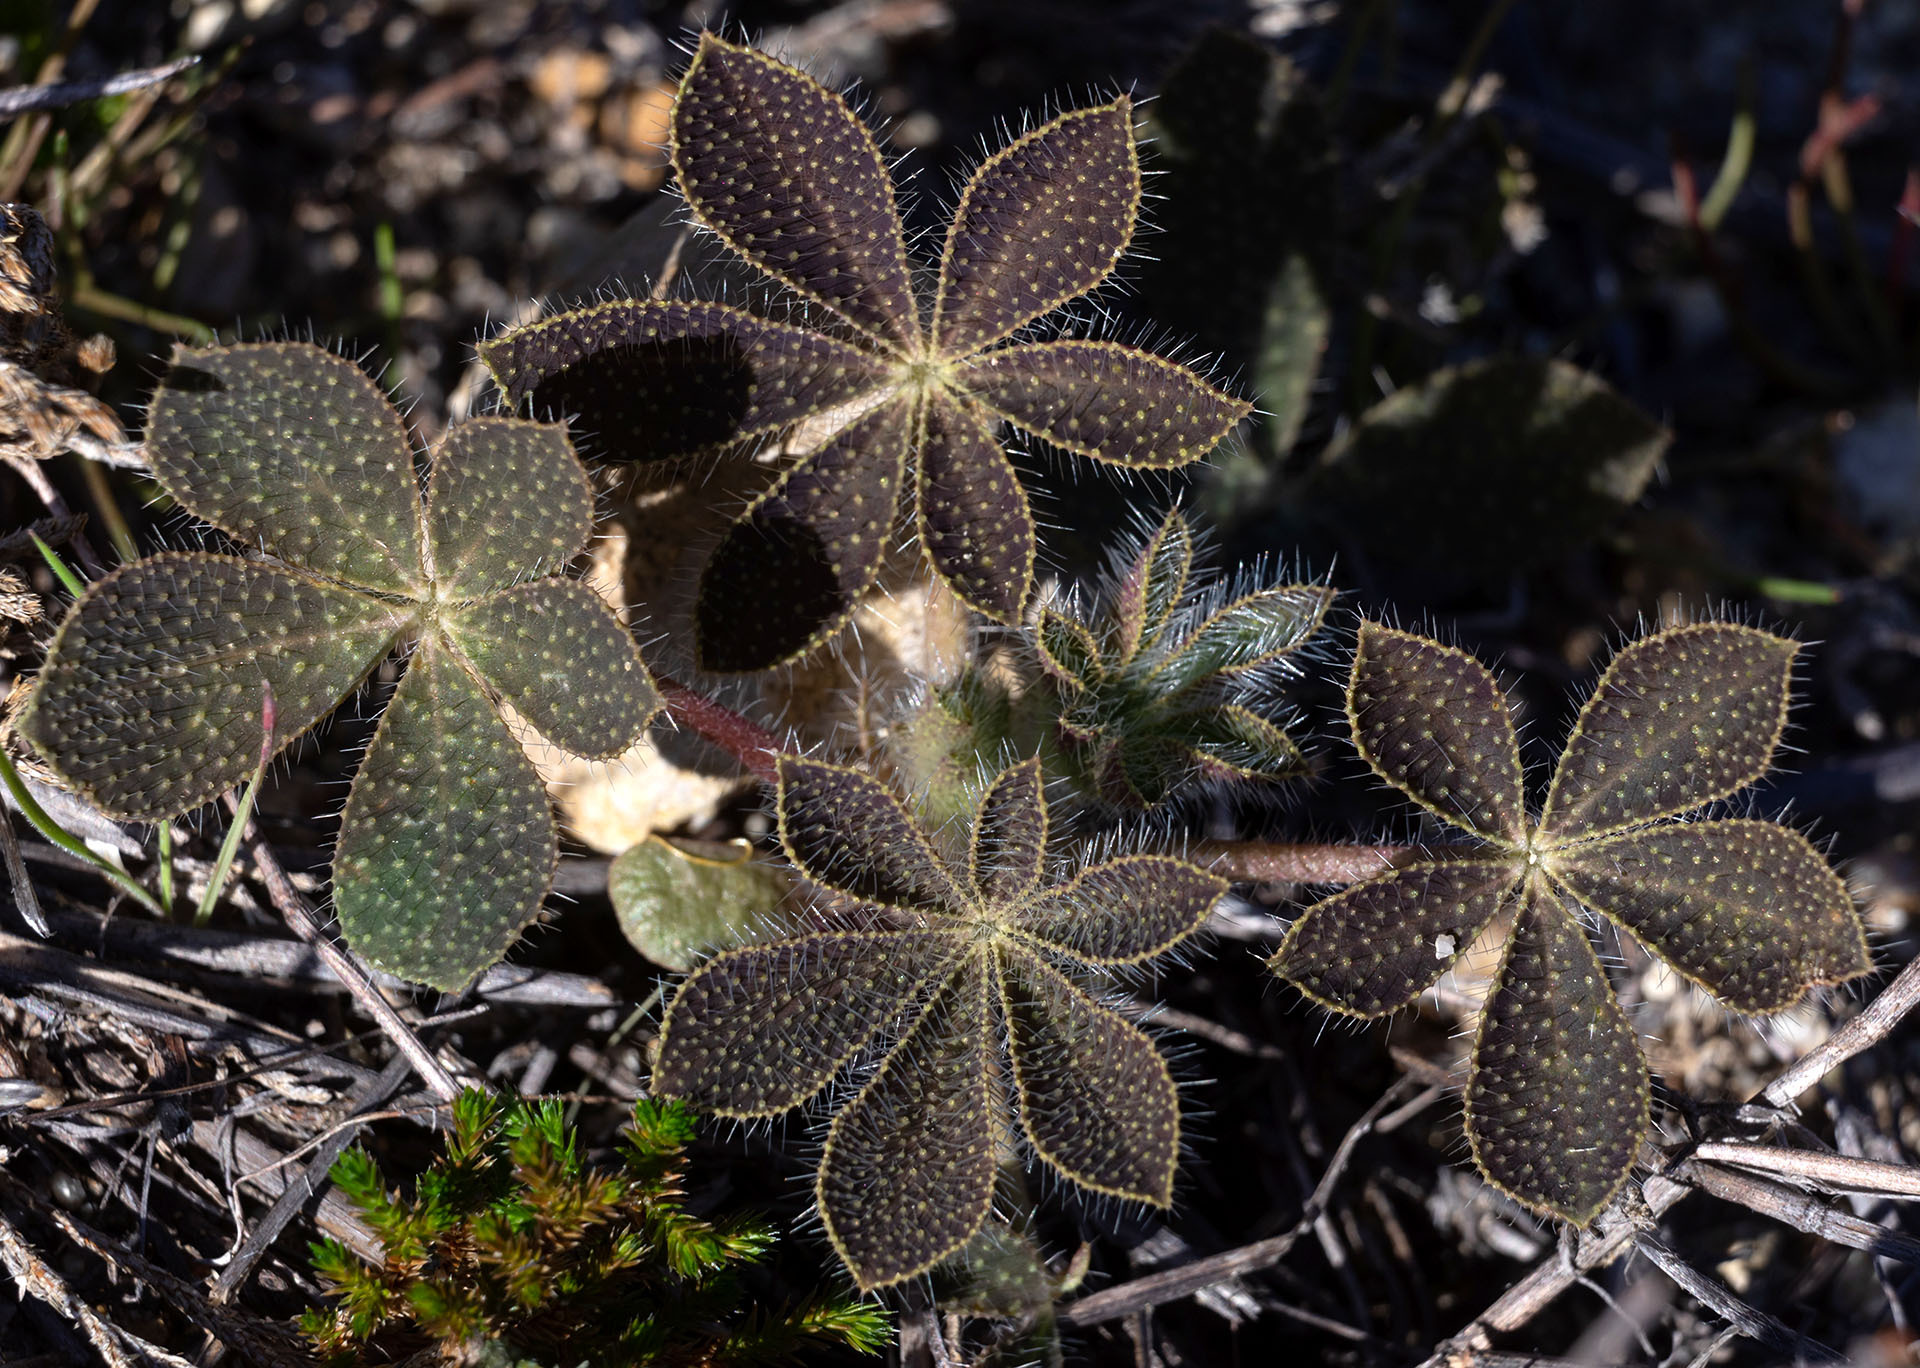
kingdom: Plantae
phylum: Tracheophyta
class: Magnoliopsida
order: Fabales
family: Fabaceae
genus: Lupinus
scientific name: Lupinus hirsutissimus
